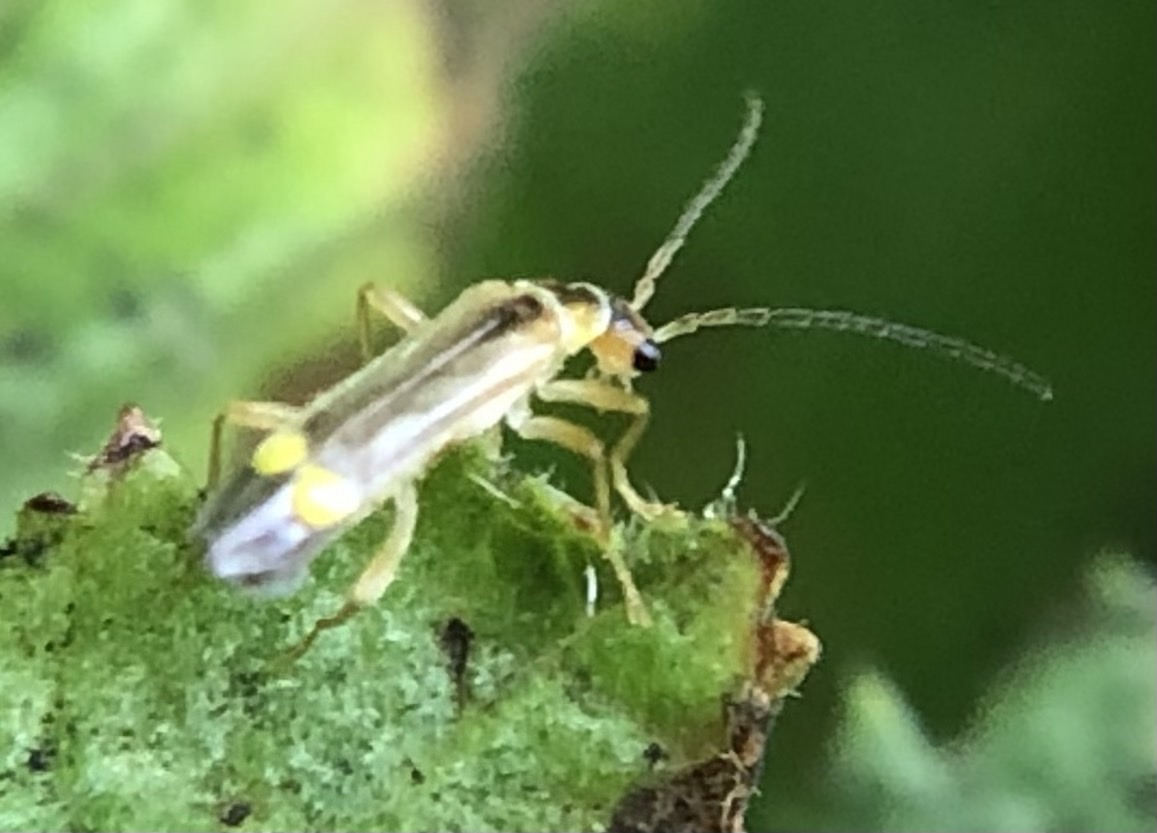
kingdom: Animalia
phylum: Arthropoda
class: Insecta
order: Coleoptera
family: Cantharidae
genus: Malthinus
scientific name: Malthinus seriepunctatus
